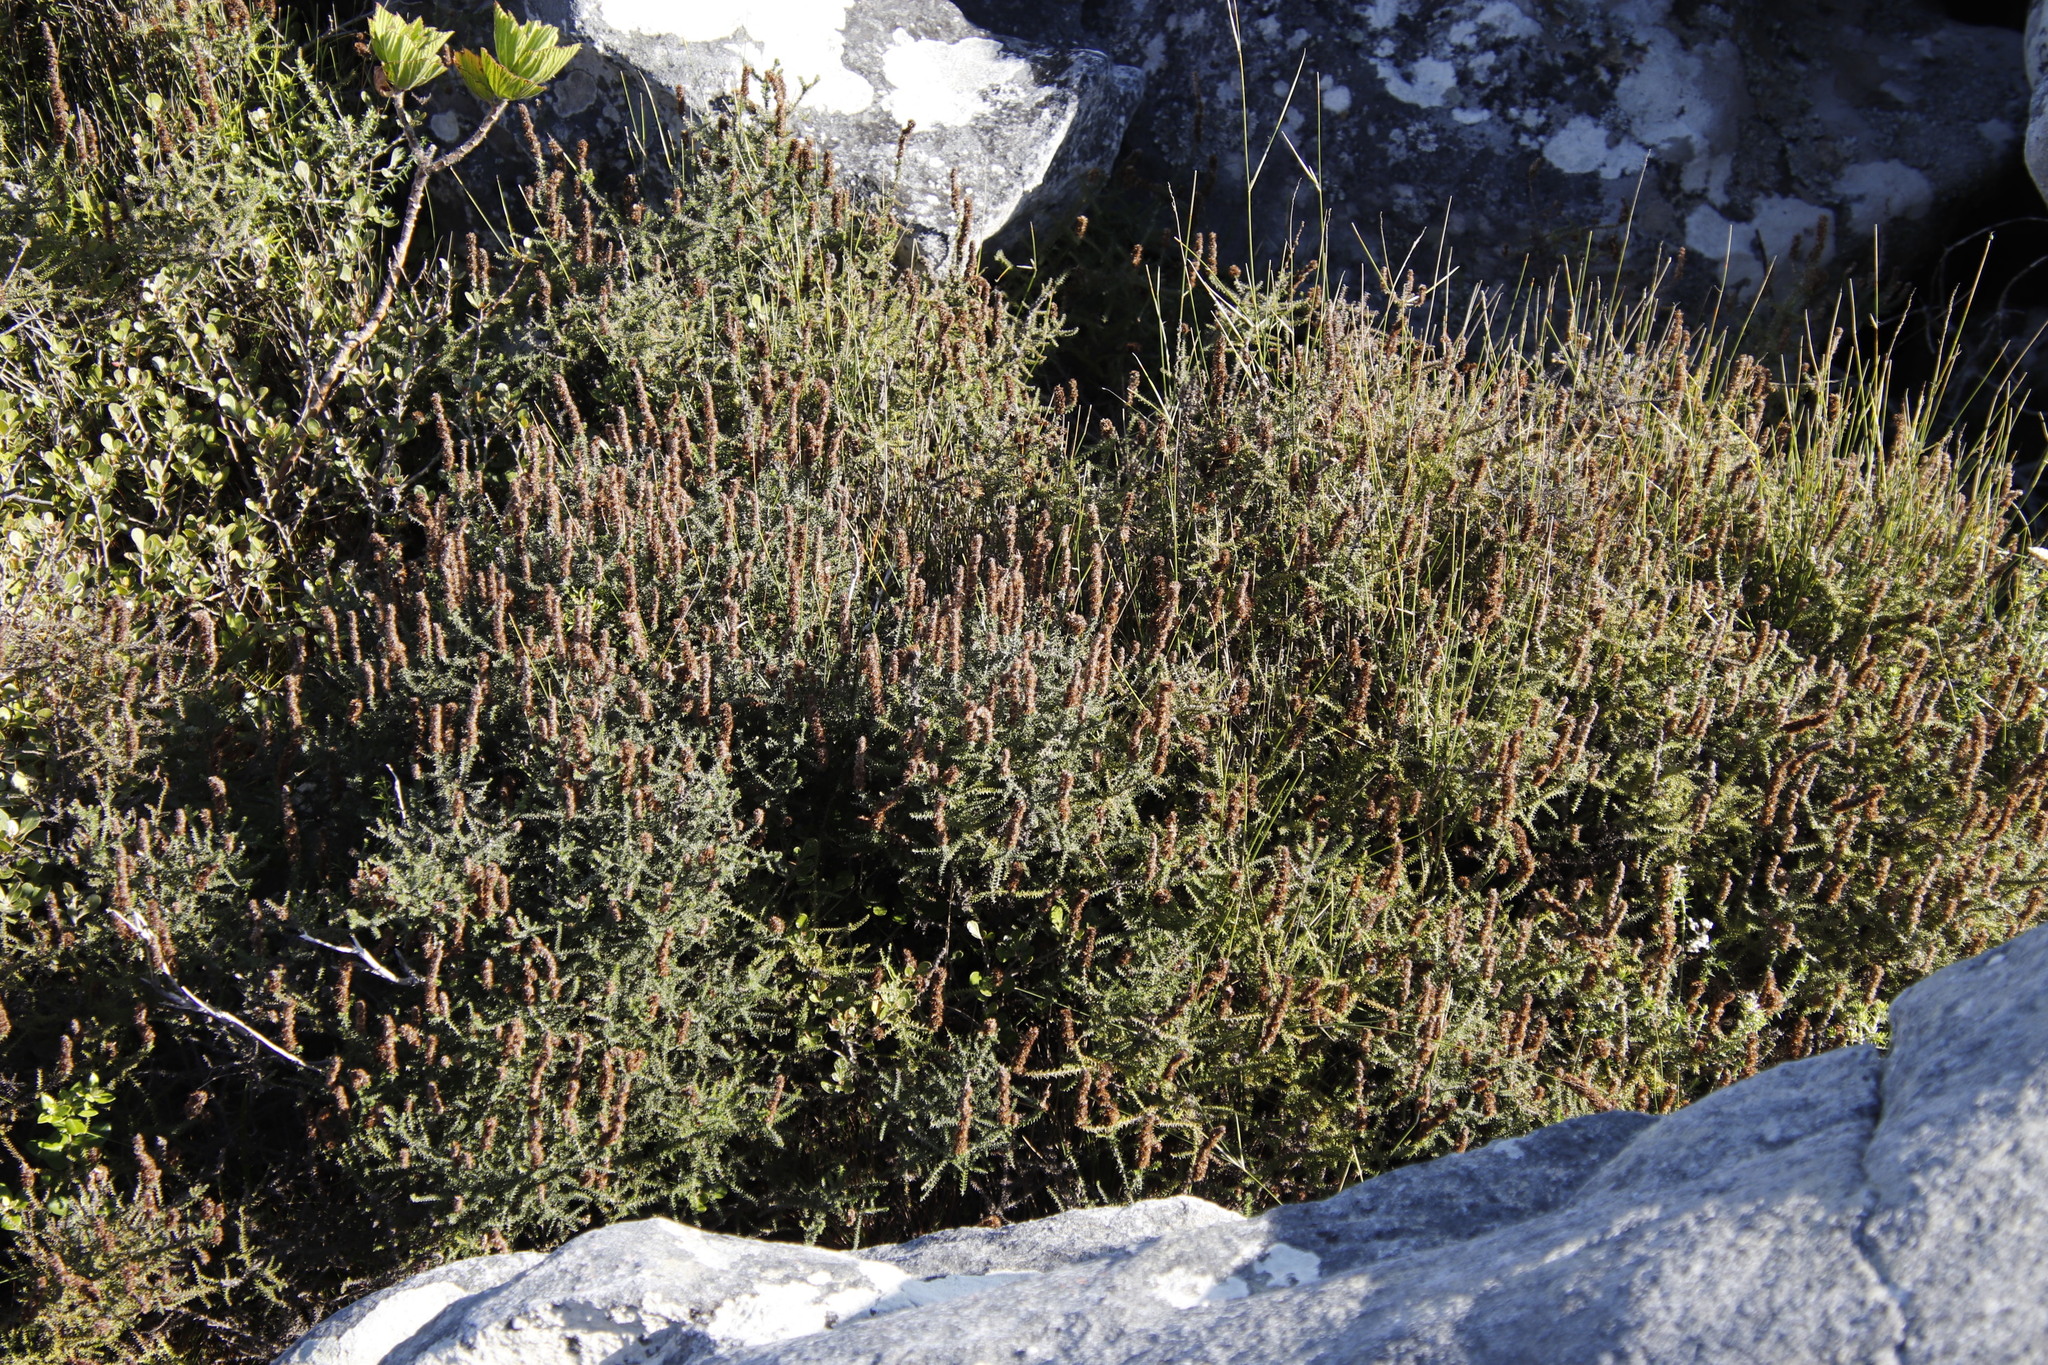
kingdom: Plantae
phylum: Tracheophyta
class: Magnoliopsida
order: Asterales
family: Asteraceae
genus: Seriphium
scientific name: Seriphium cinereum
